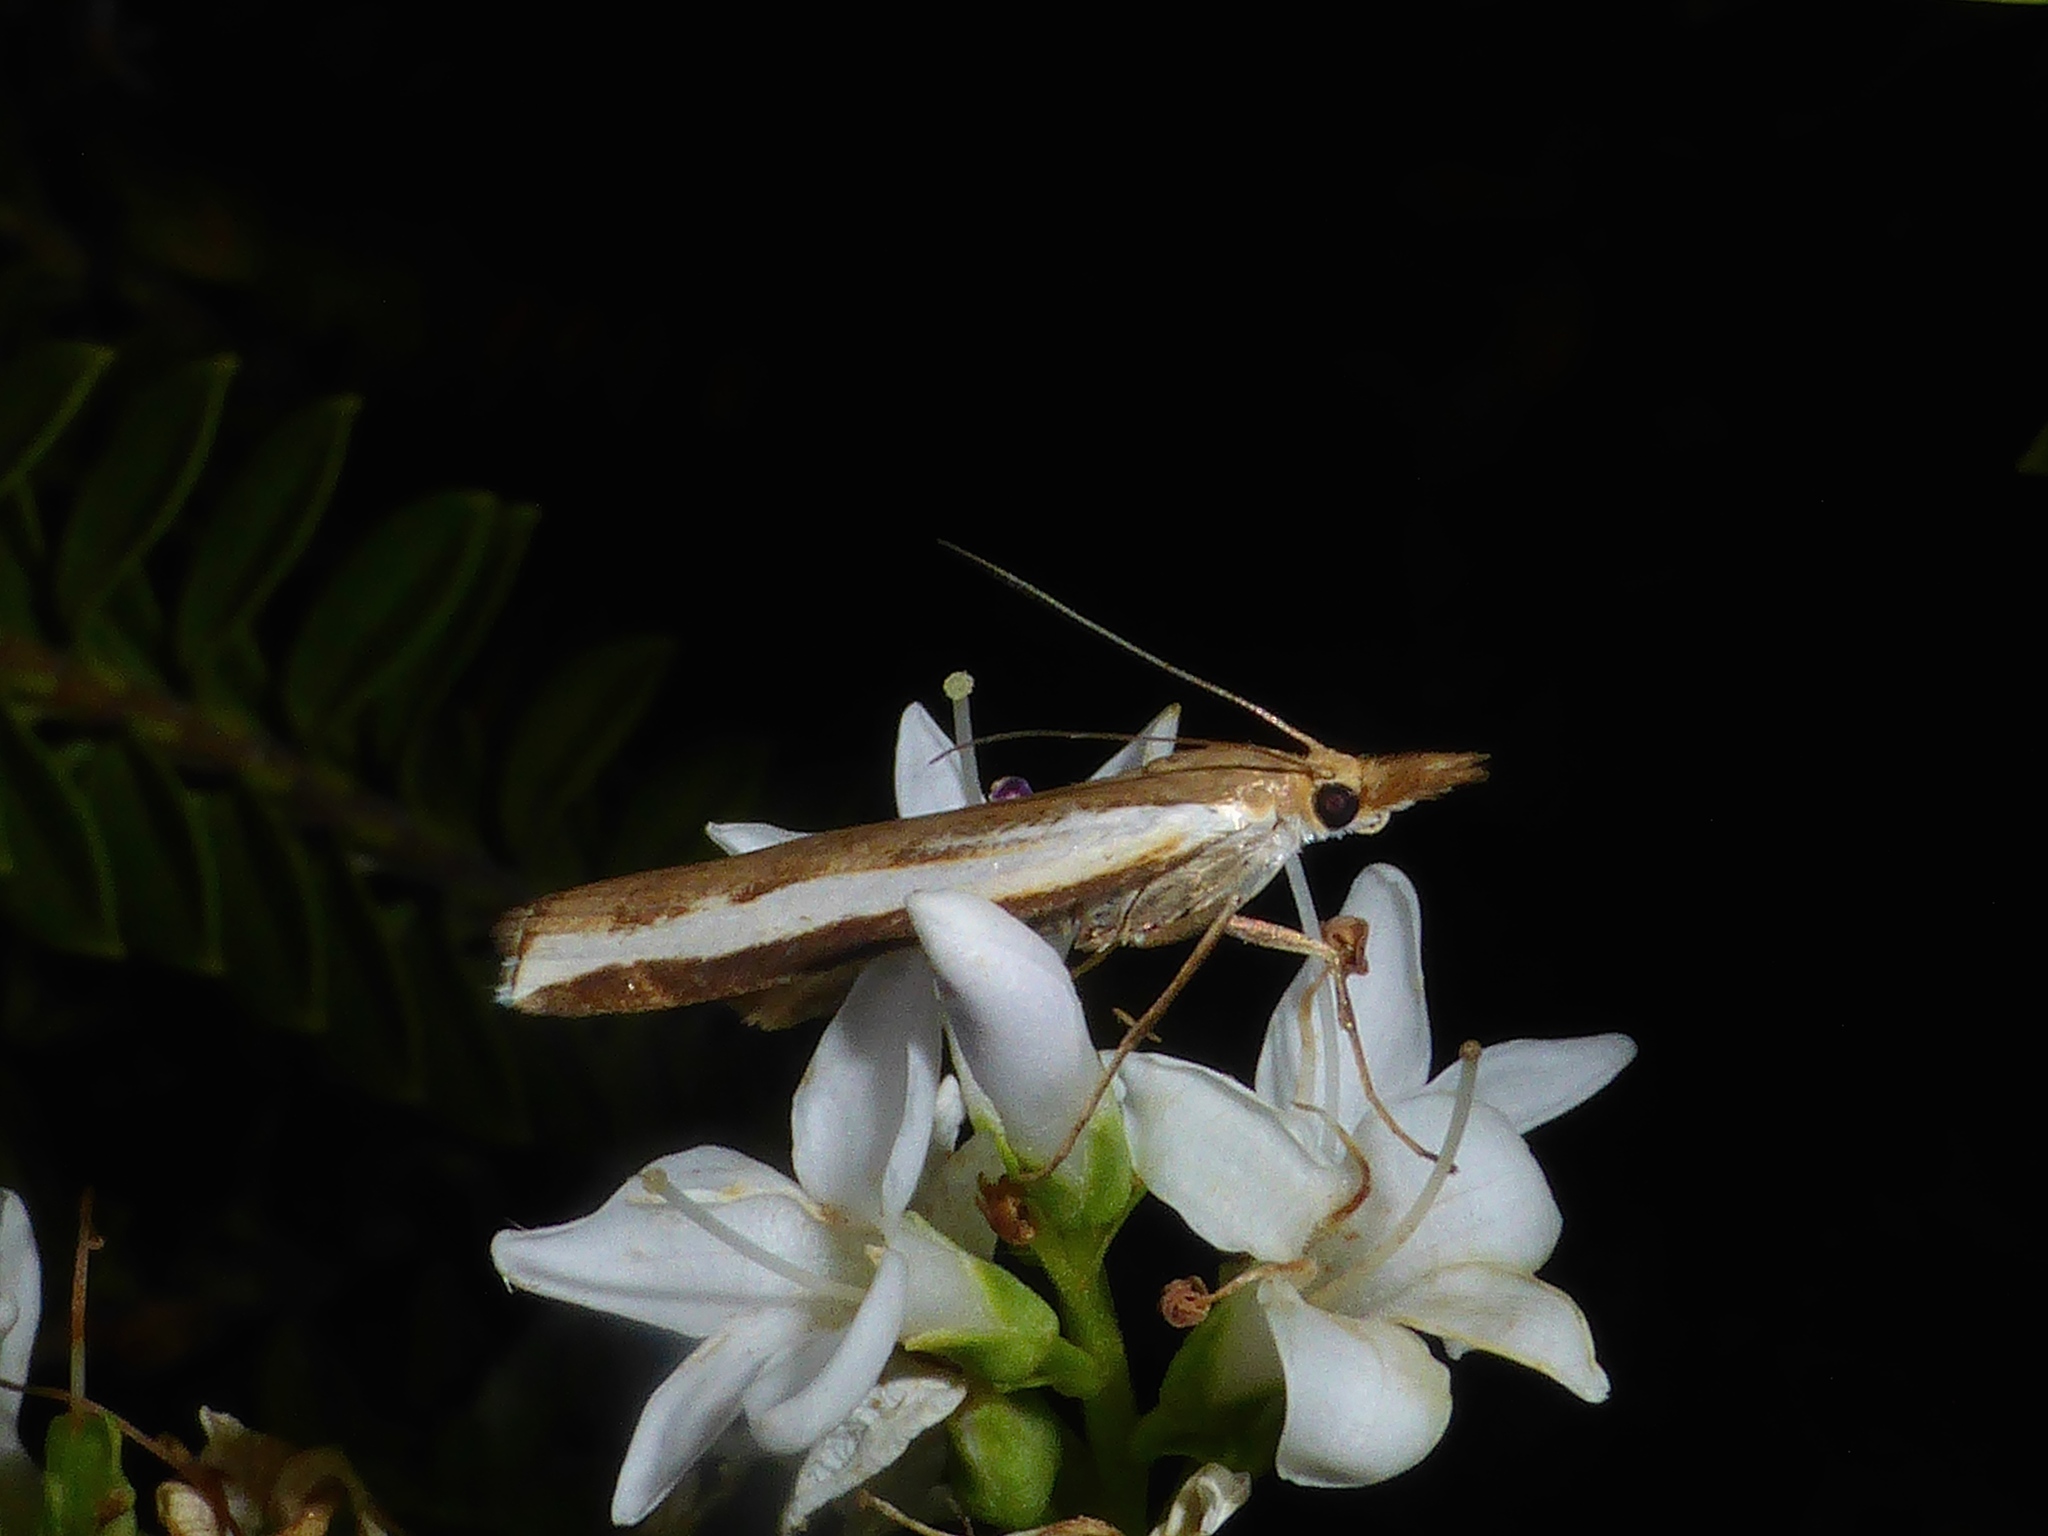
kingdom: Animalia
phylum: Arthropoda
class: Insecta
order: Lepidoptera
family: Crambidae
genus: Orocrambus
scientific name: Orocrambus flexuosellus
